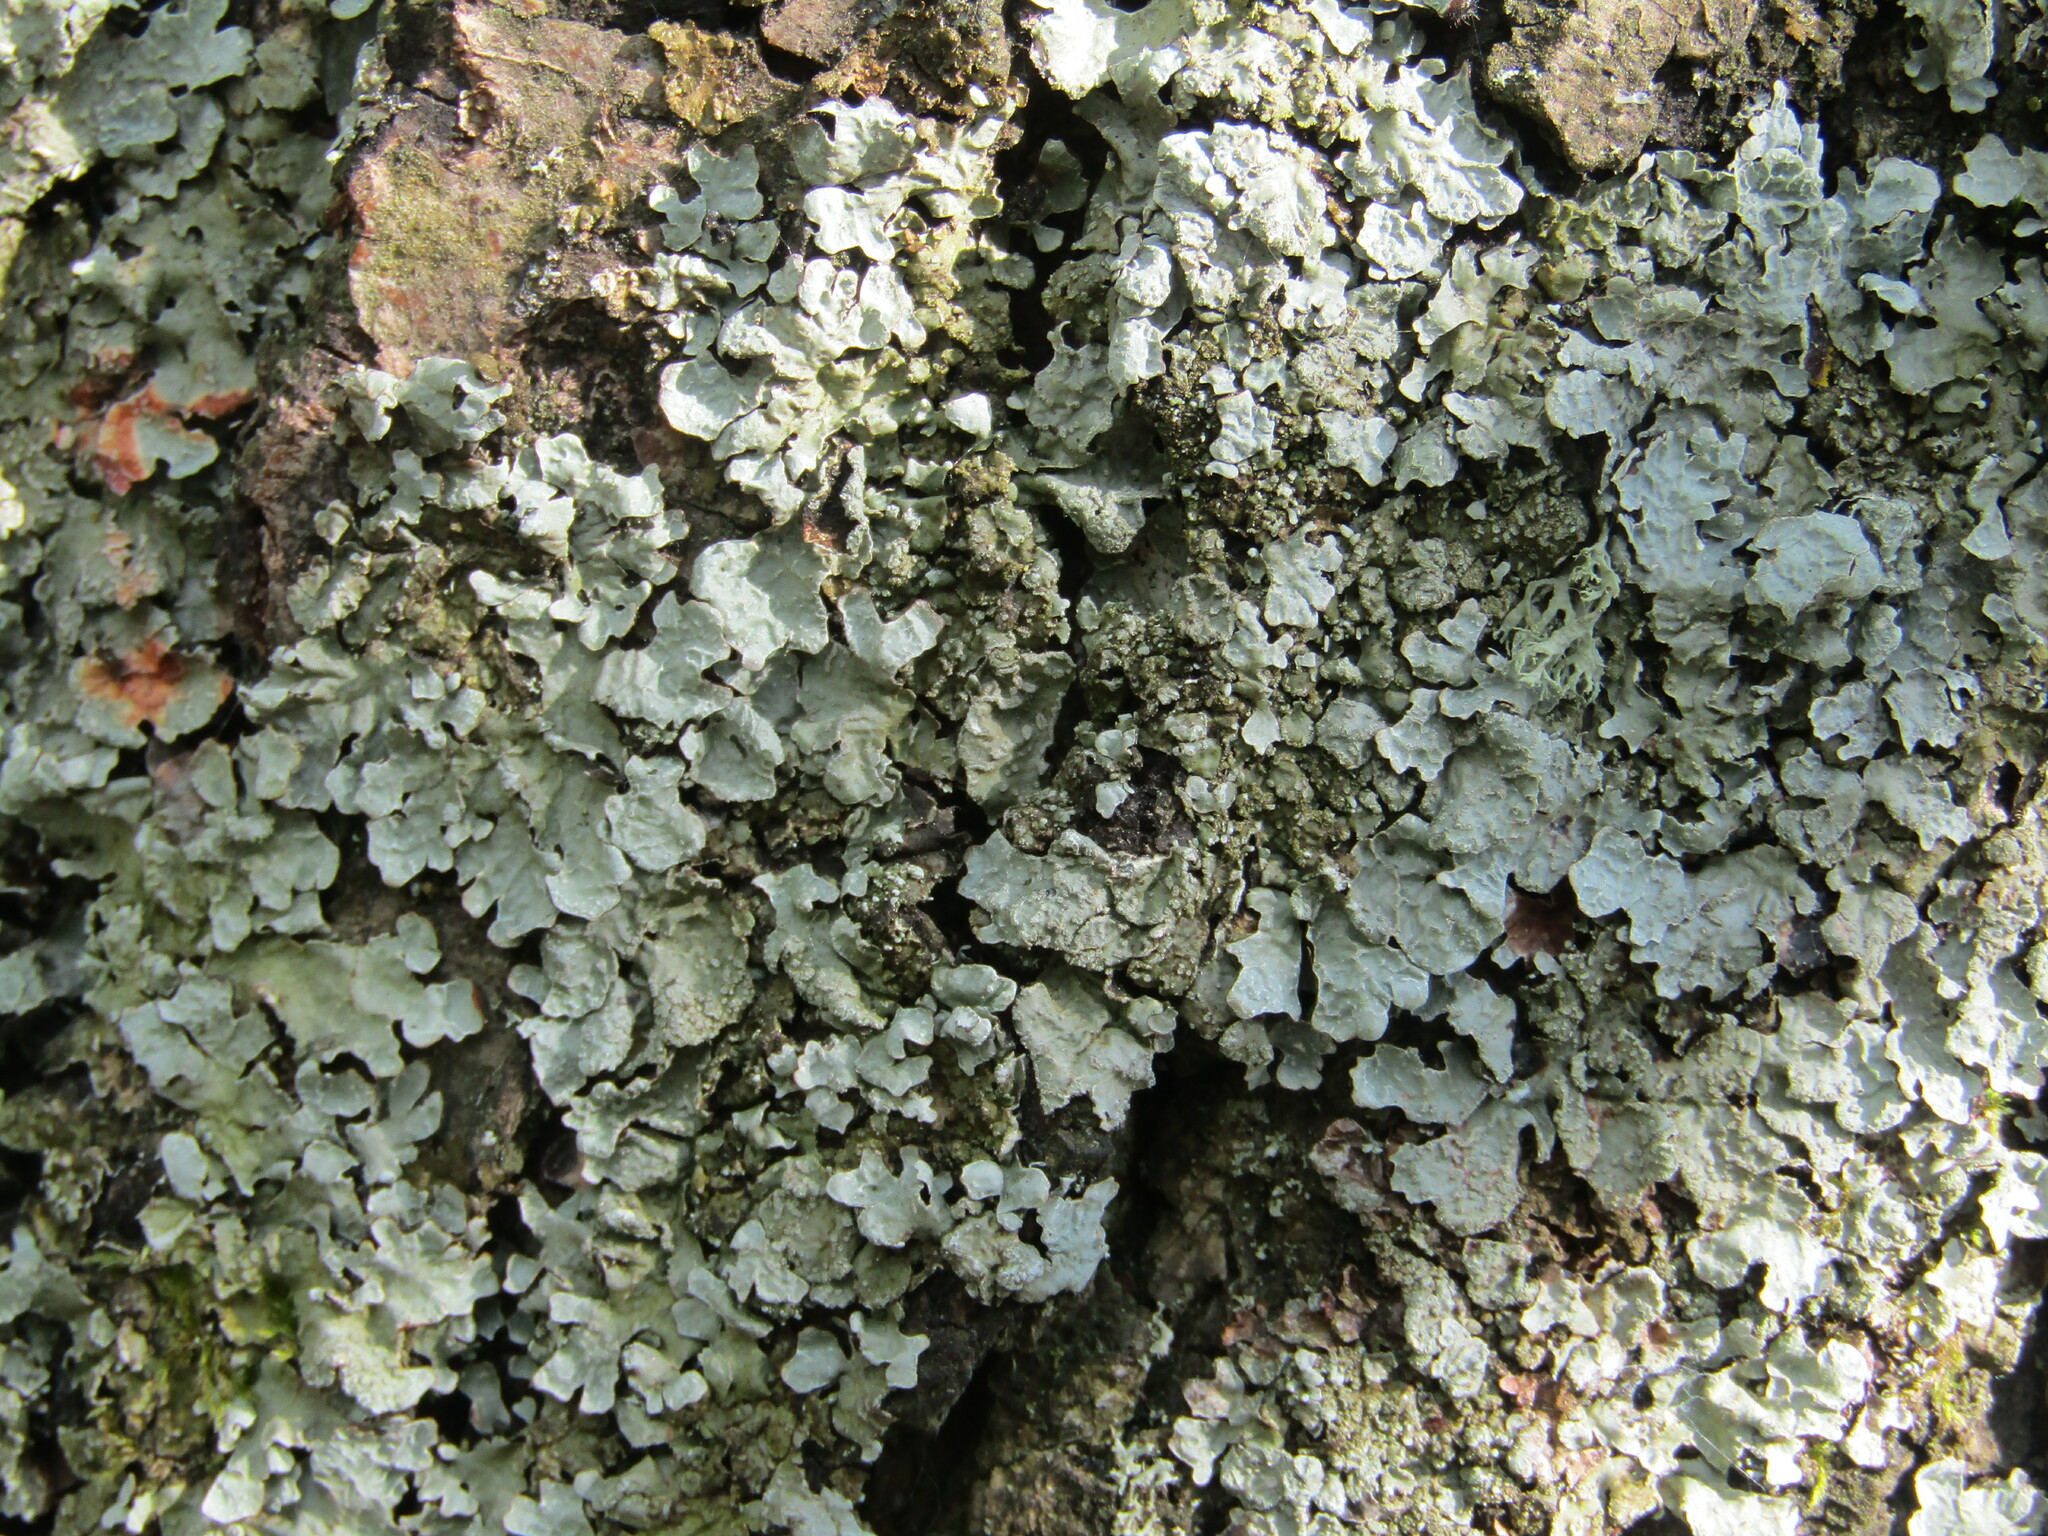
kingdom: Fungi
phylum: Ascomycota
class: Lecanoromycetes
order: Lecanorales
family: Parmeliaceae
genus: Parmelia
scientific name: Parmelia sulcata
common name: Netted shield lichen
